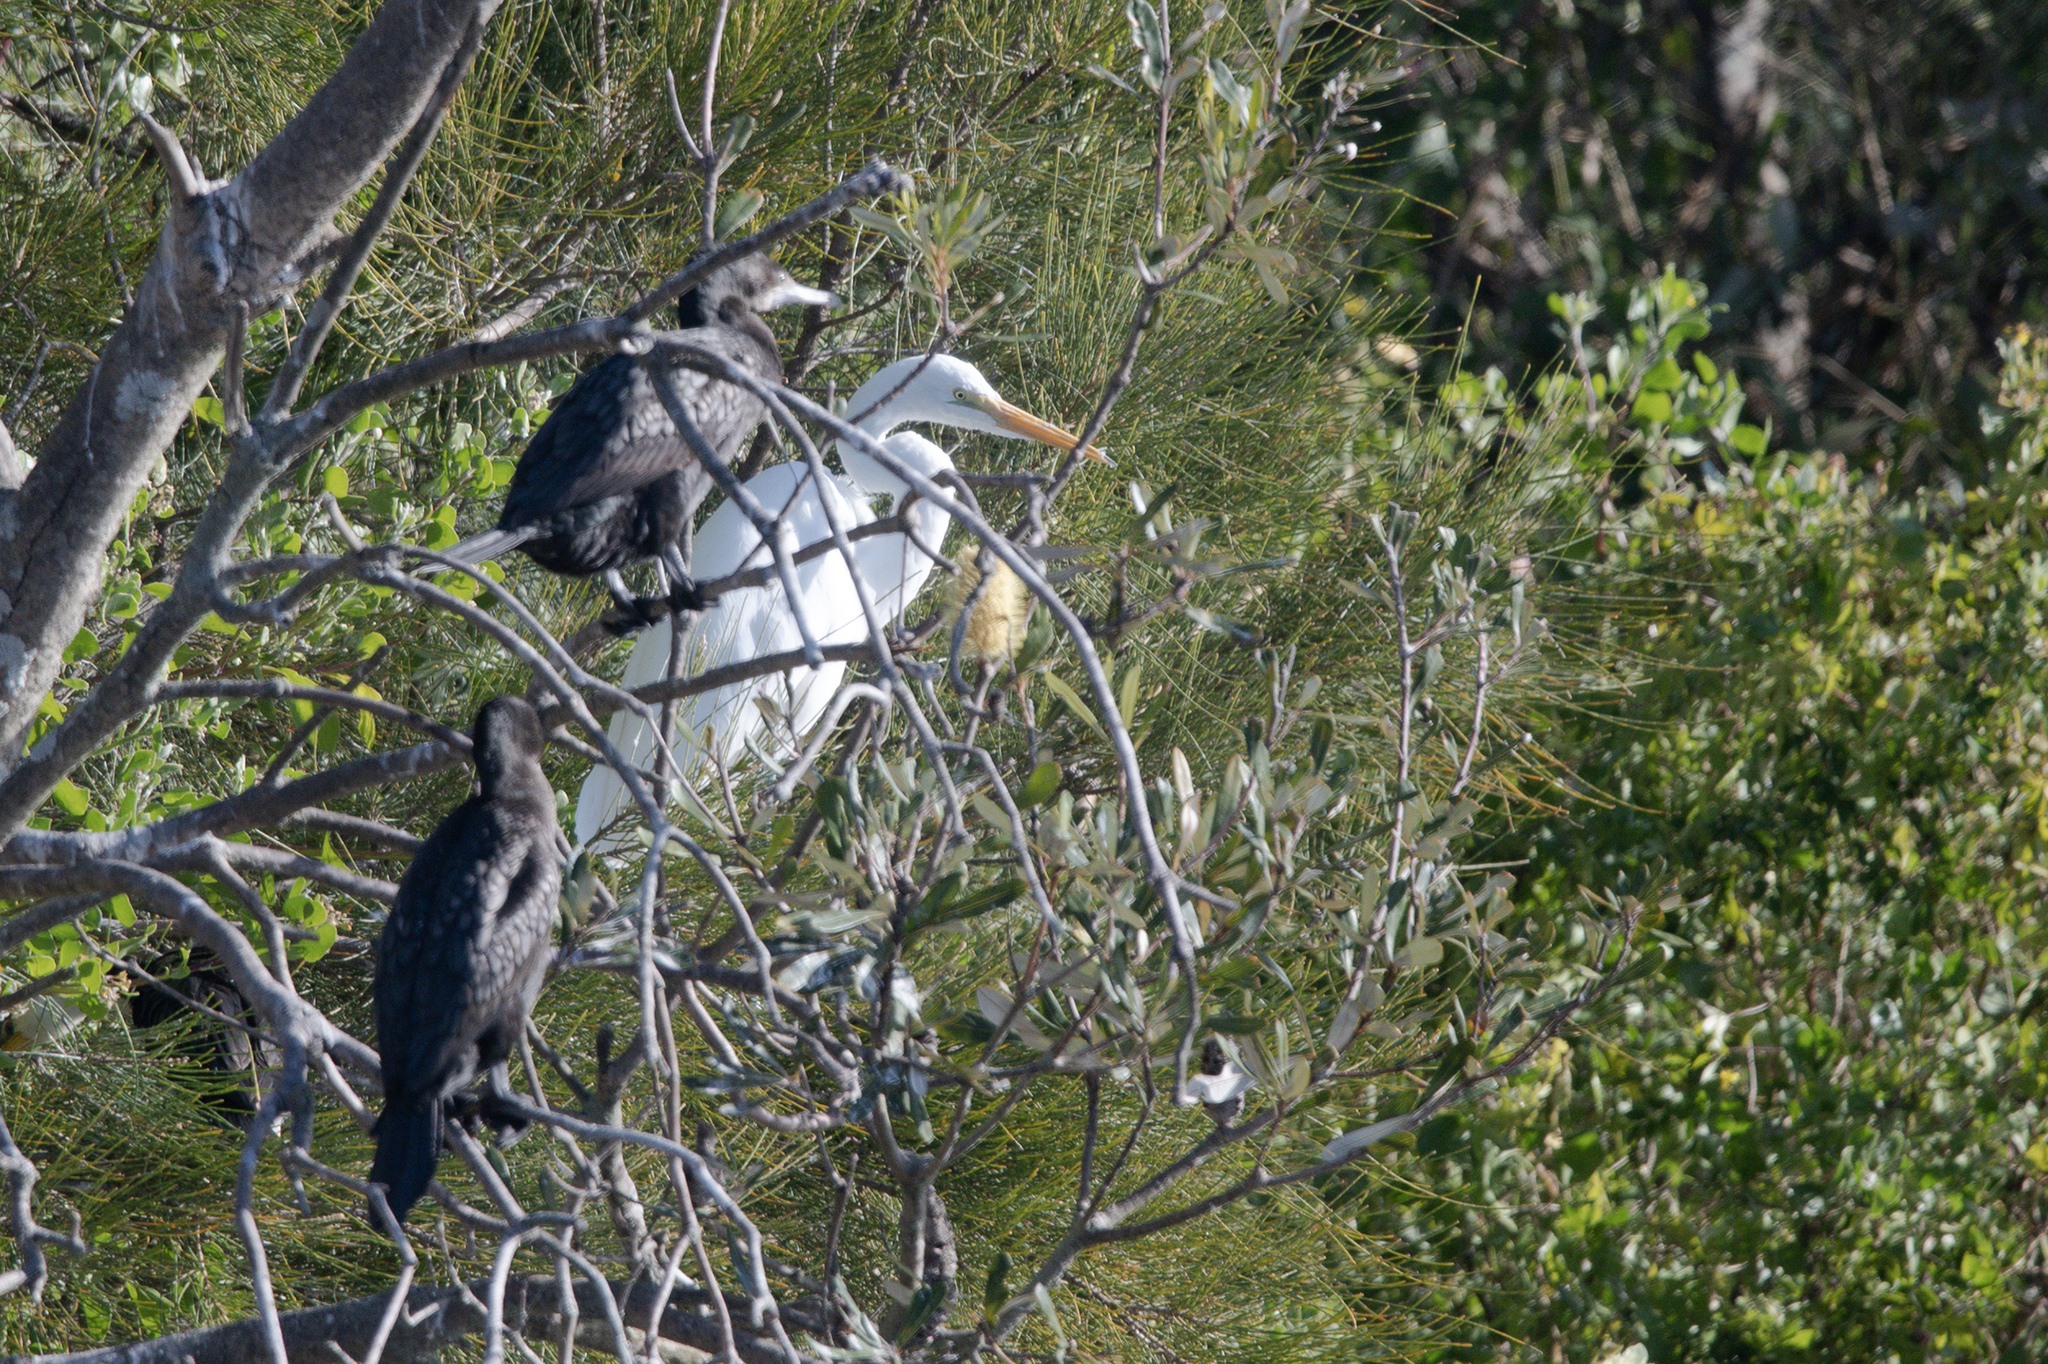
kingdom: Animalia
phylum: Chordata
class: Aves
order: Pelecaniformes
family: Ardeidae
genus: Ardea
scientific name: Ardea alba
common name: Great egret
